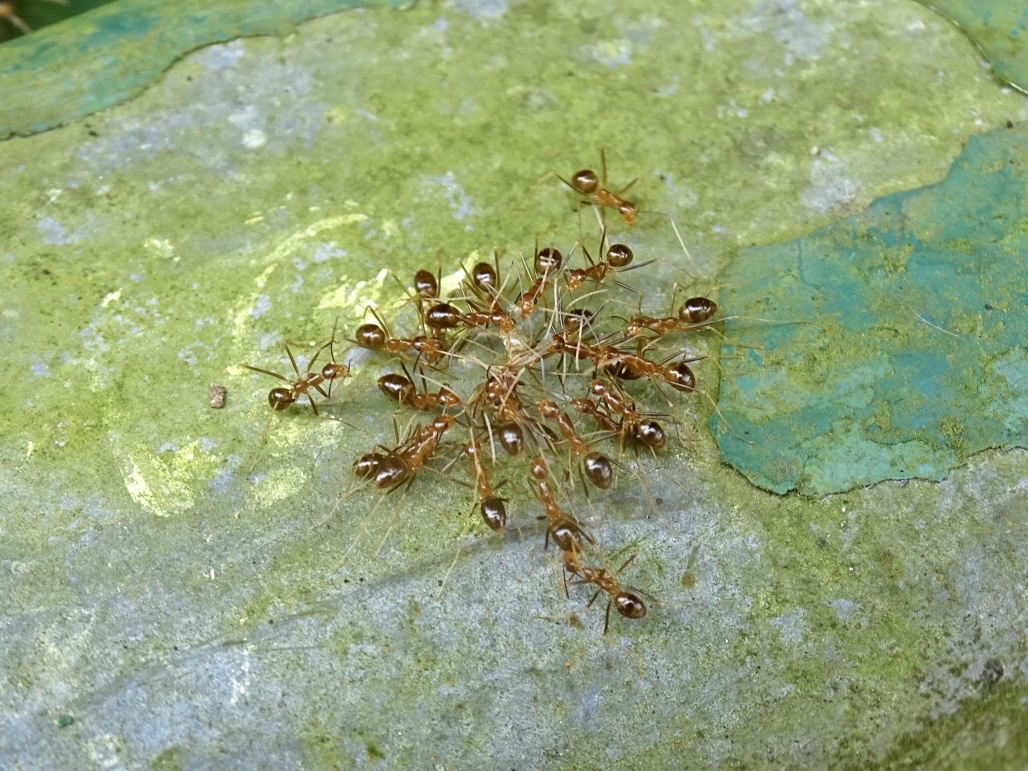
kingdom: Animalia
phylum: Arthropoda
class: Insecta
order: Hymenoptera
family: Formicidae
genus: Anoplolepis
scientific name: Anoplolepis gracilipes
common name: Ant
